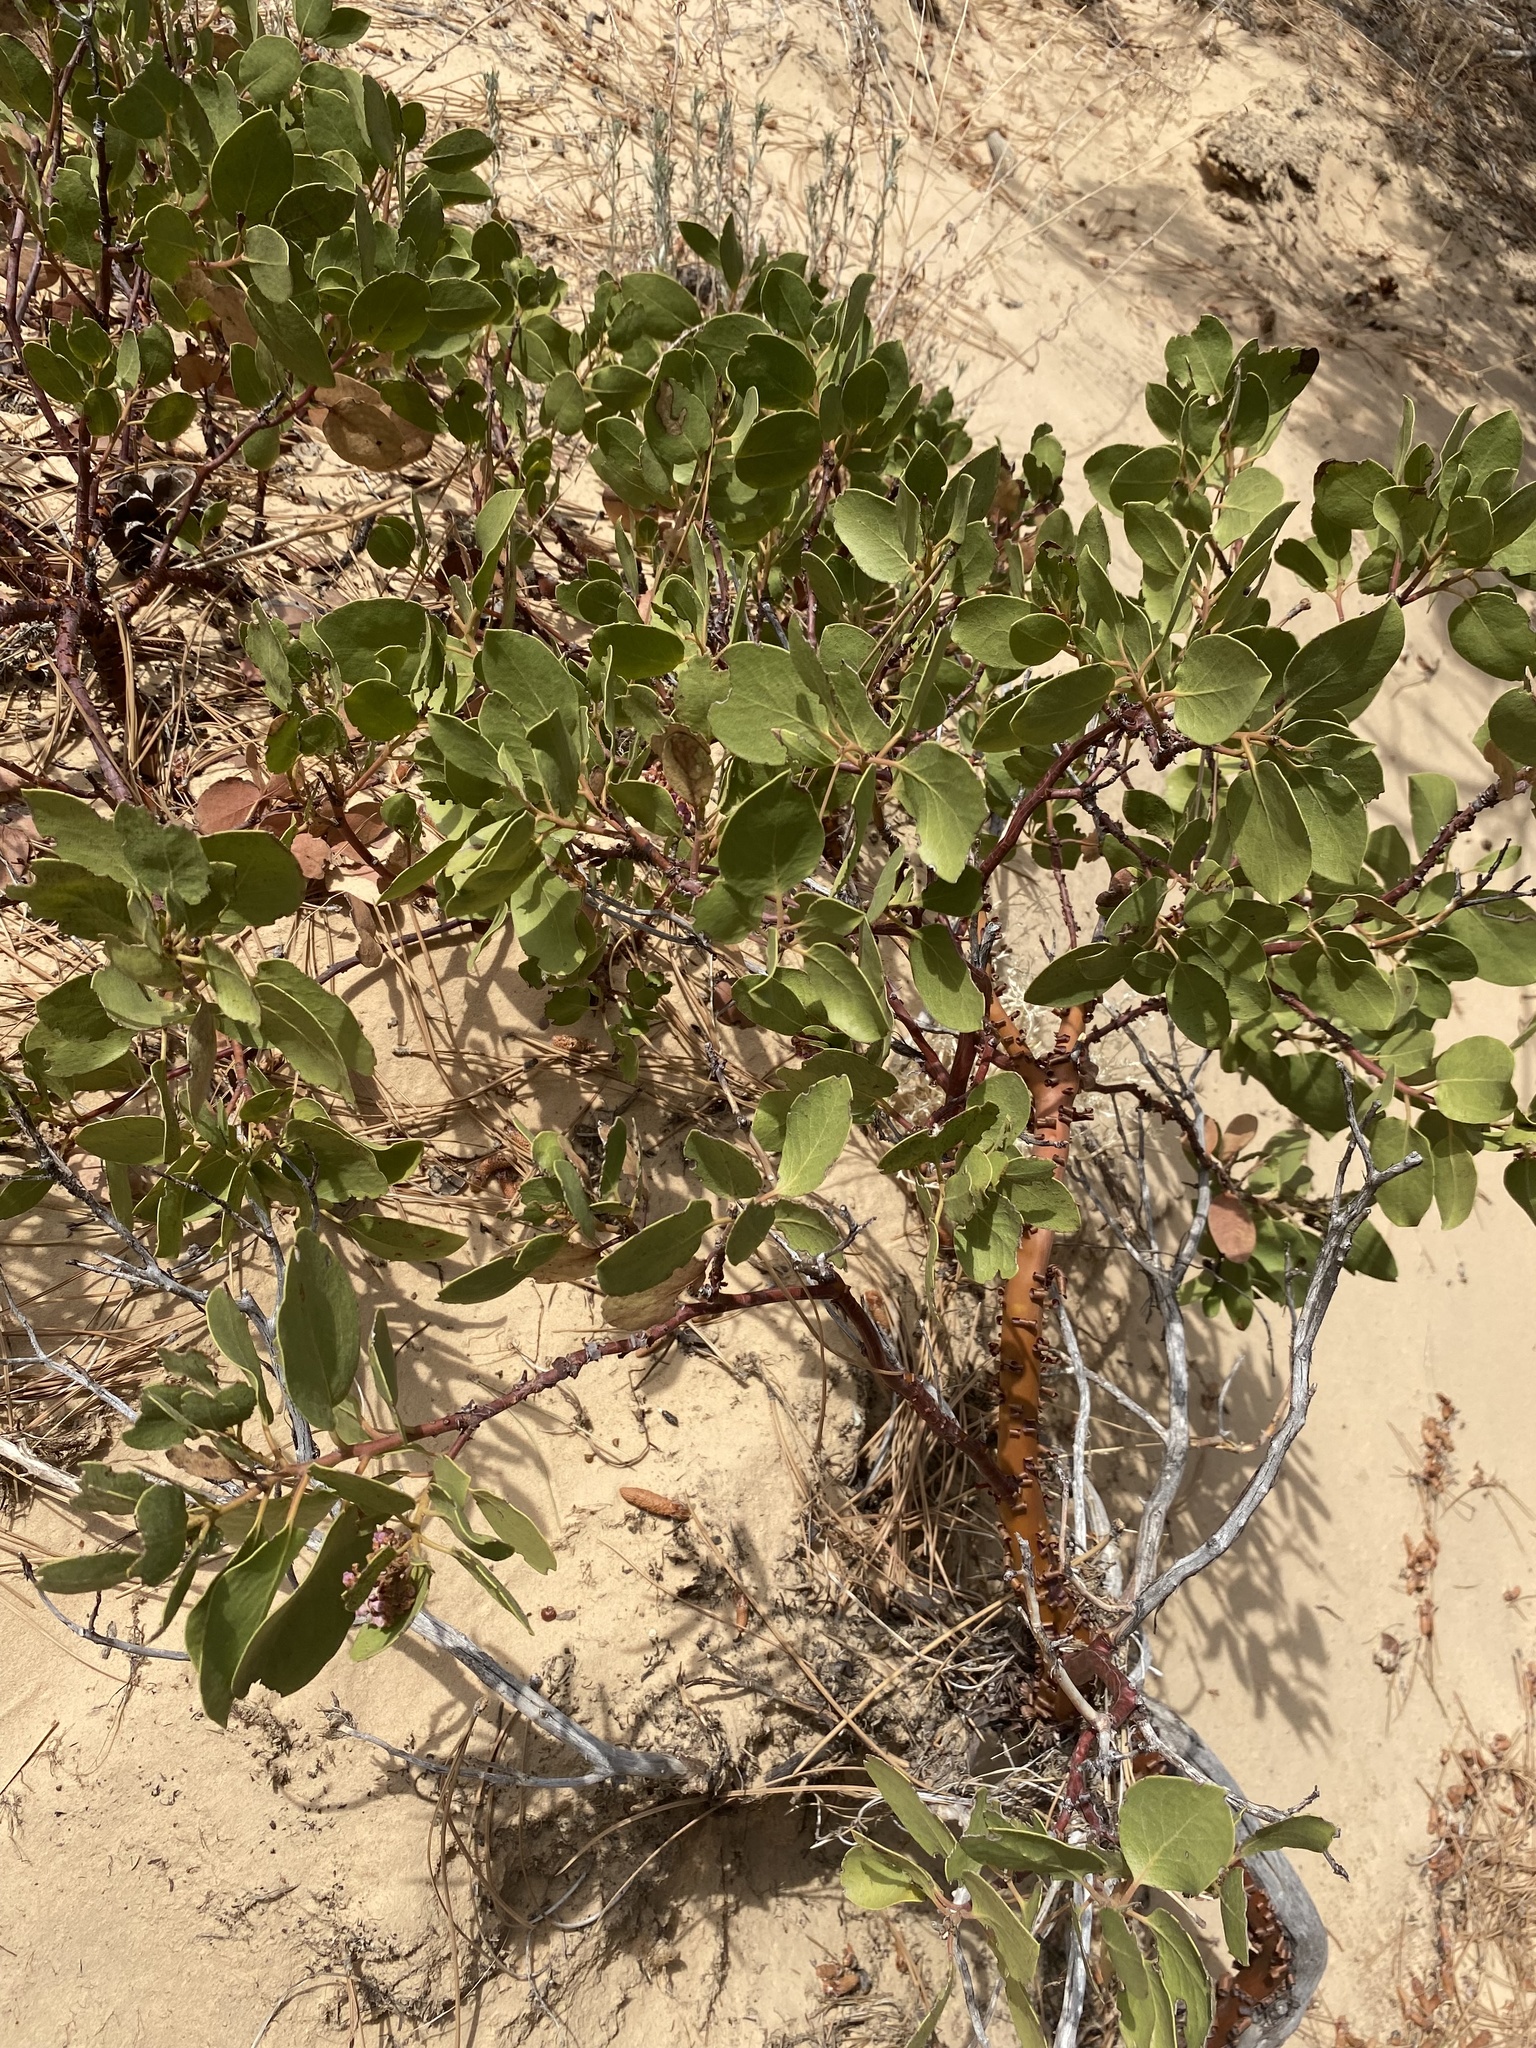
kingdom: Plantae
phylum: Tracheophyta
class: Magnoliopsida
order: Ericales
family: Ericaceae
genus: Arctostaphylos
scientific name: Arctostaphylos patula
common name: Green-leaf manzanita
